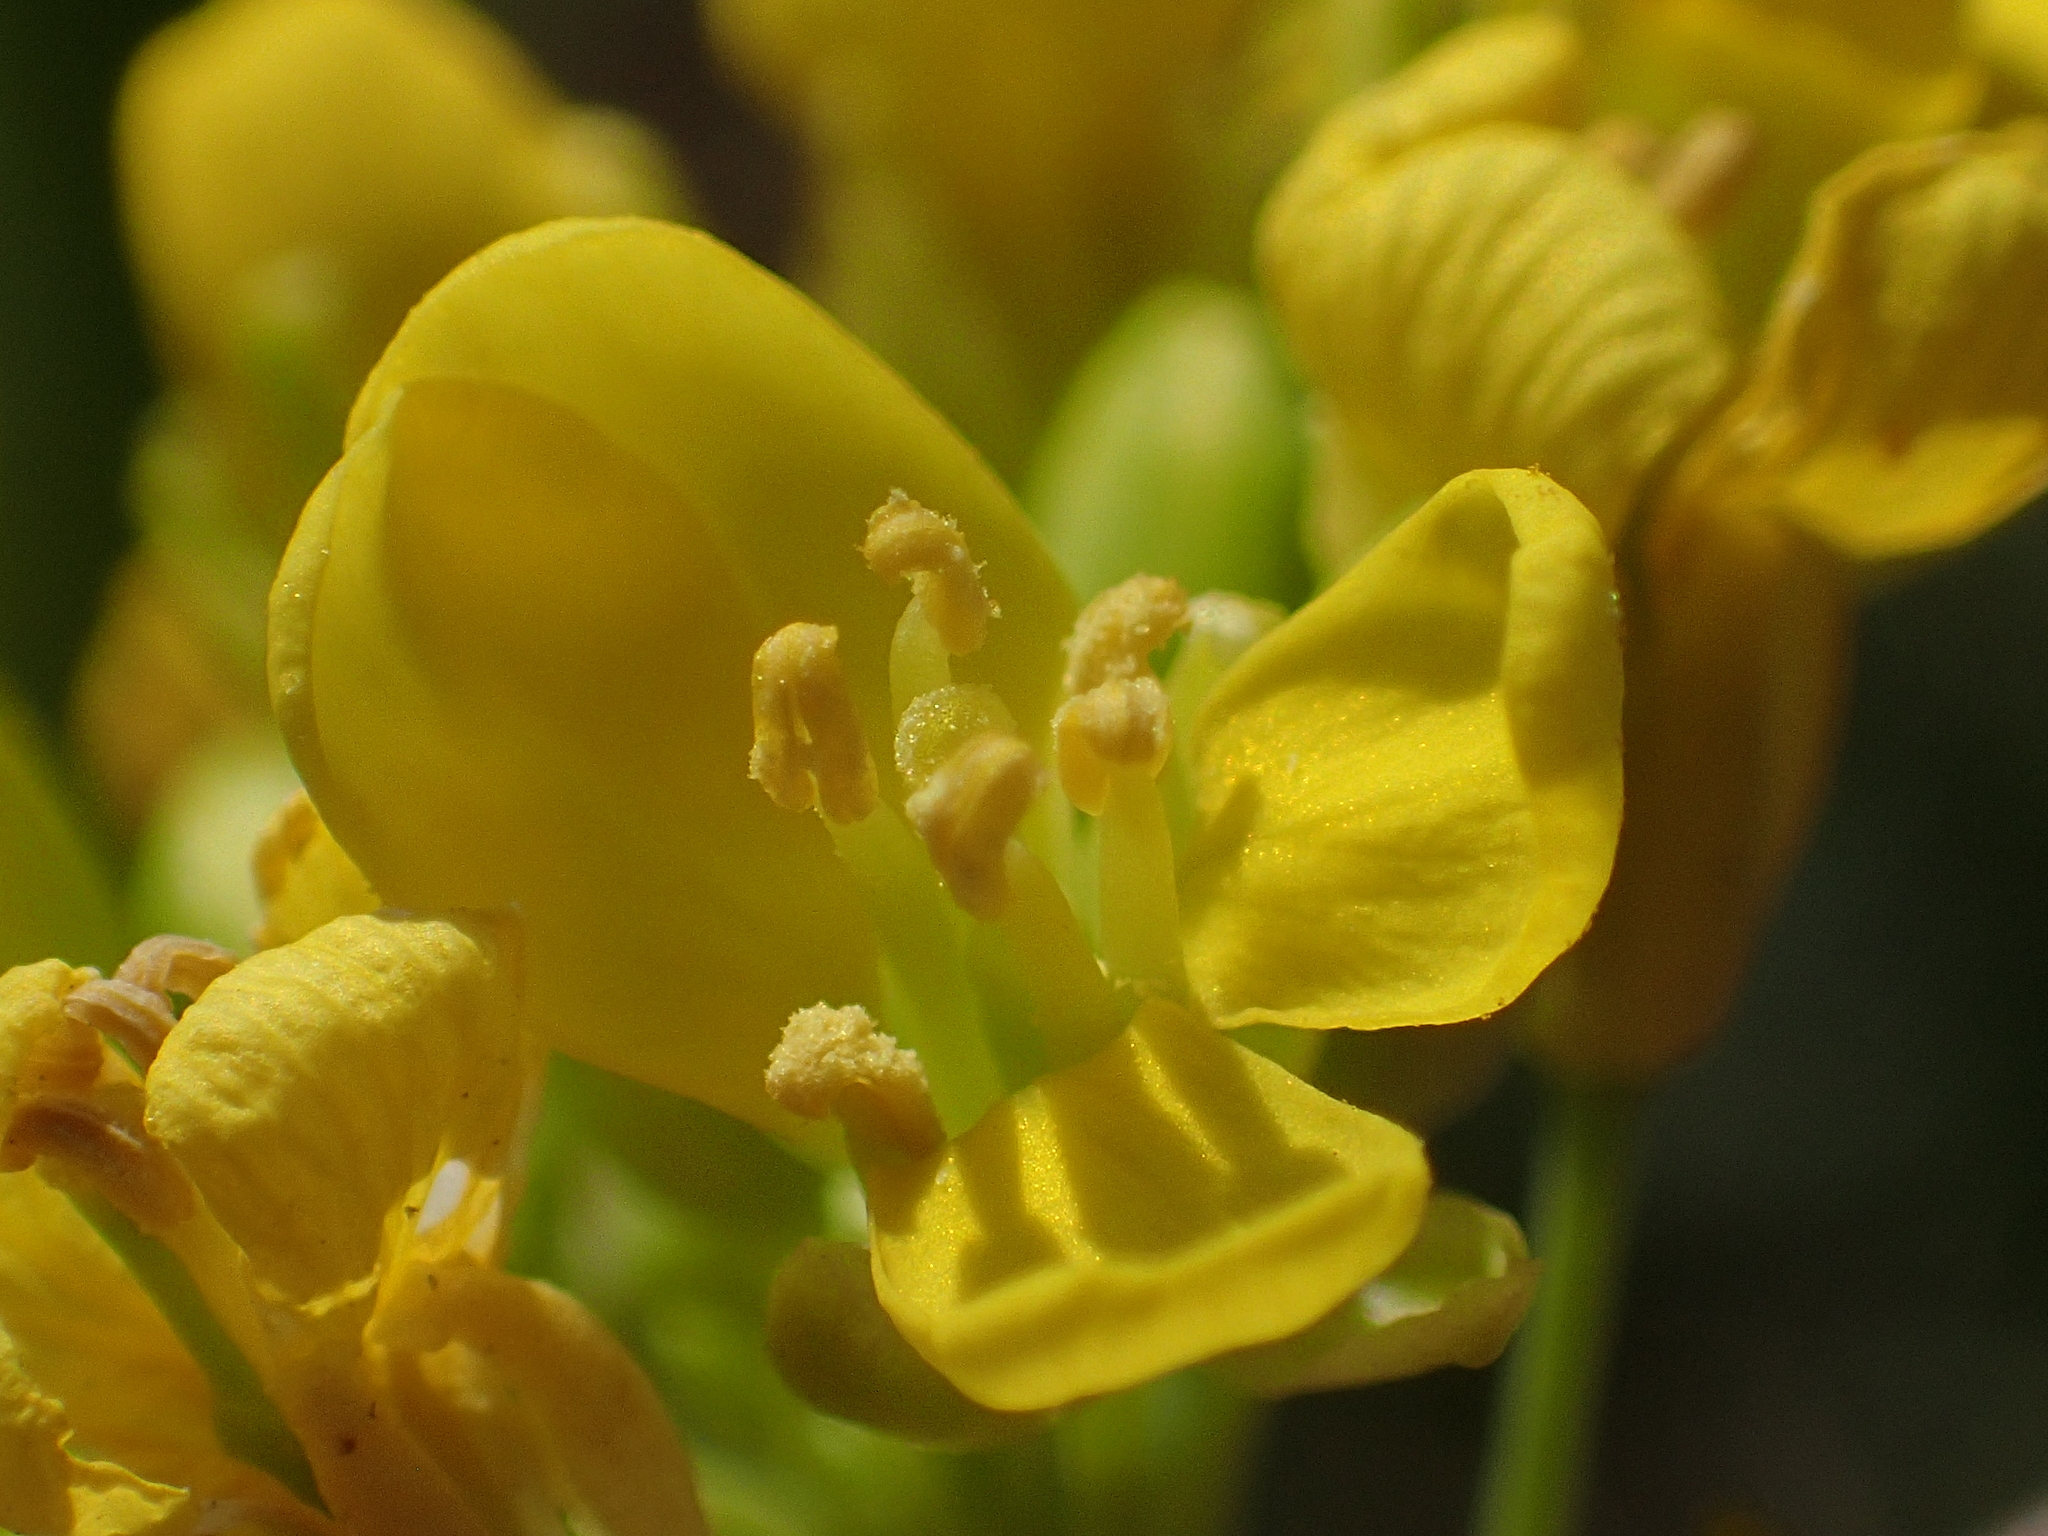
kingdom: Plantae
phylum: Tracheophyta
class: Magnoliopsida
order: Brassicales
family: Brassicaceae
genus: Brassica
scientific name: Brassica rapa
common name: Field mustard
